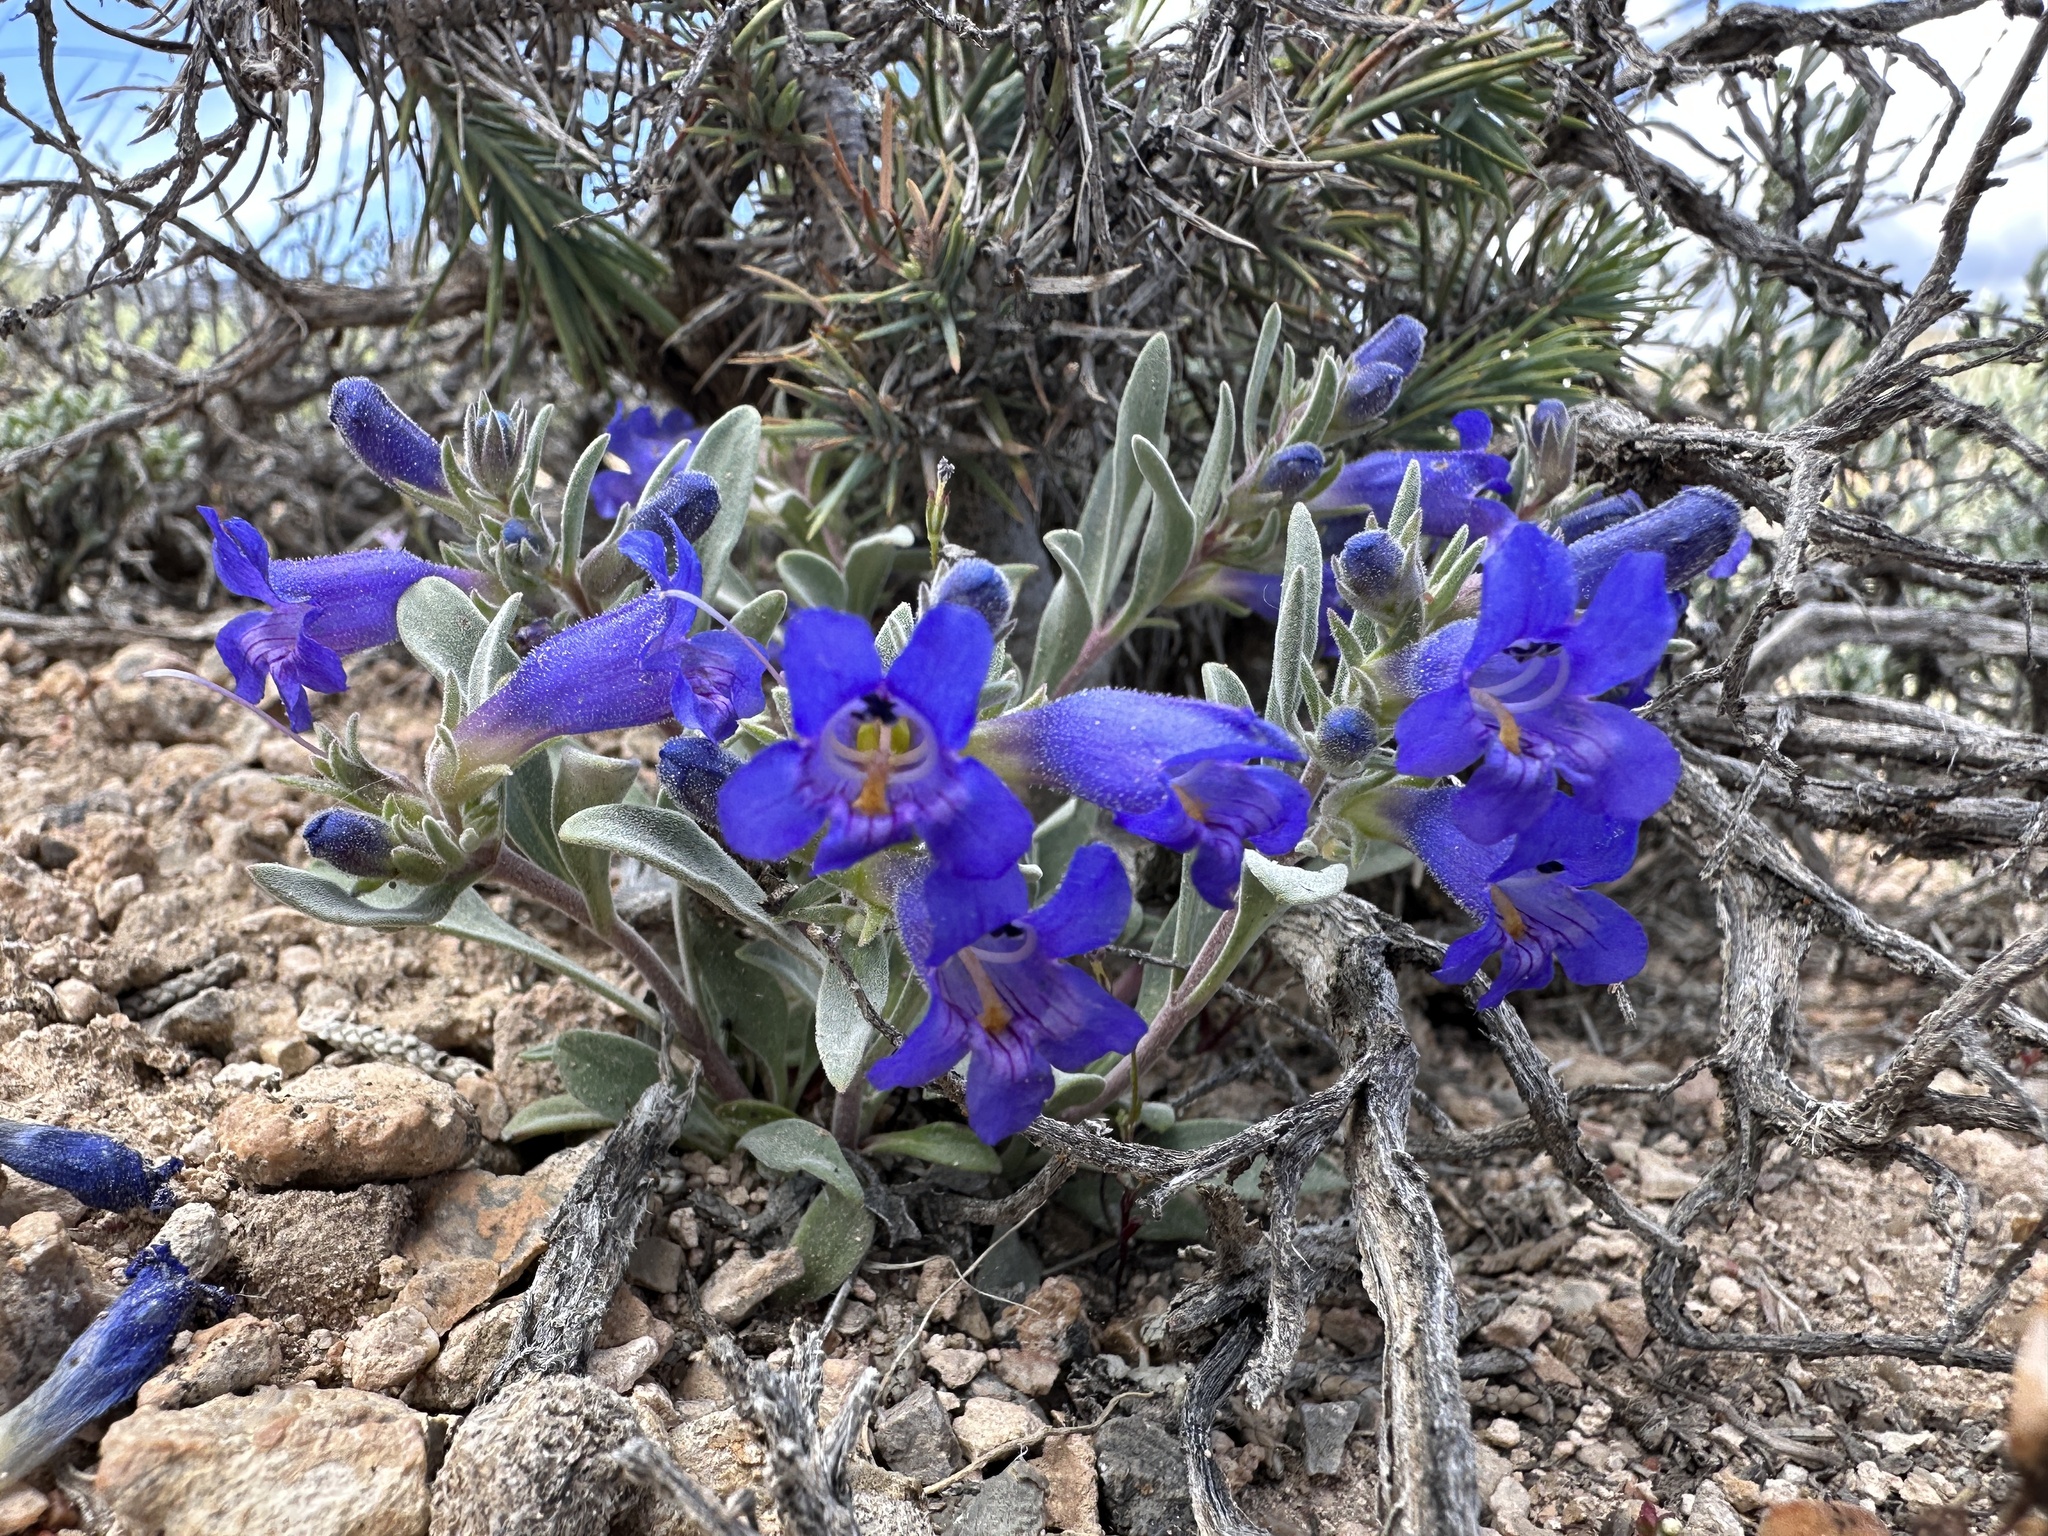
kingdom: Plantae
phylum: Tracheophyta
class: Magnoliopsida
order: Lamiales
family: Plantaginaceae
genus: Penstemon
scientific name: Penstemon dolius
